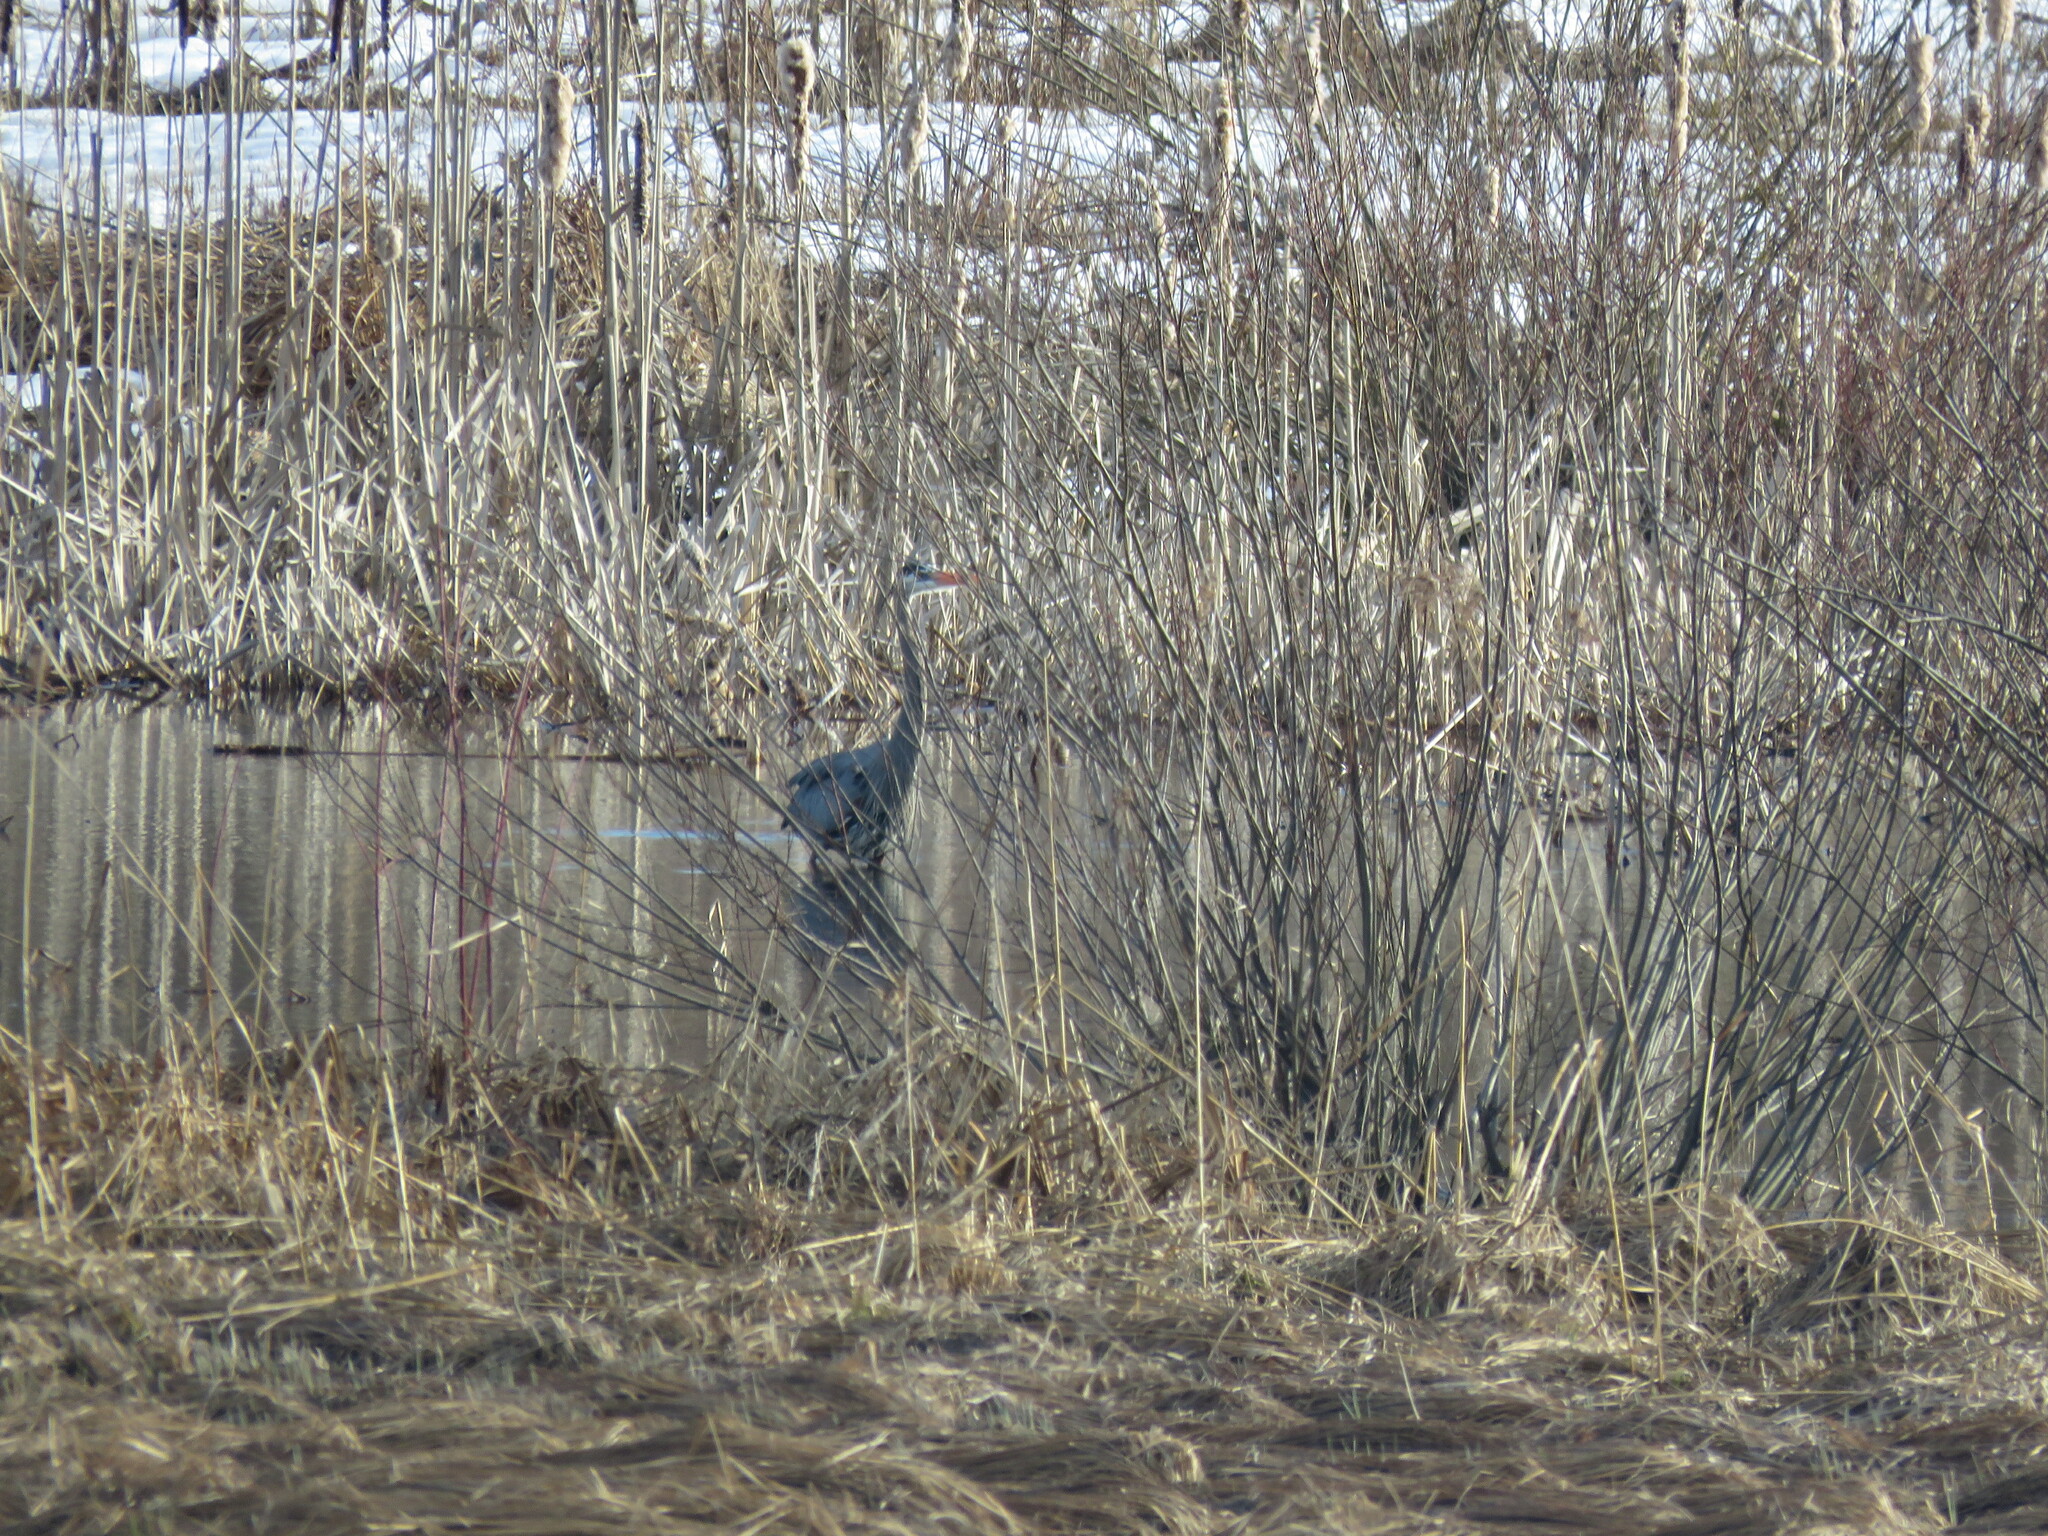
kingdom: Animalia
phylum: Chordata
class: Aves
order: Pelecaniformes
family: Ardeidae
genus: Ardea
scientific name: Ardea herodias
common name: Great blue heron
